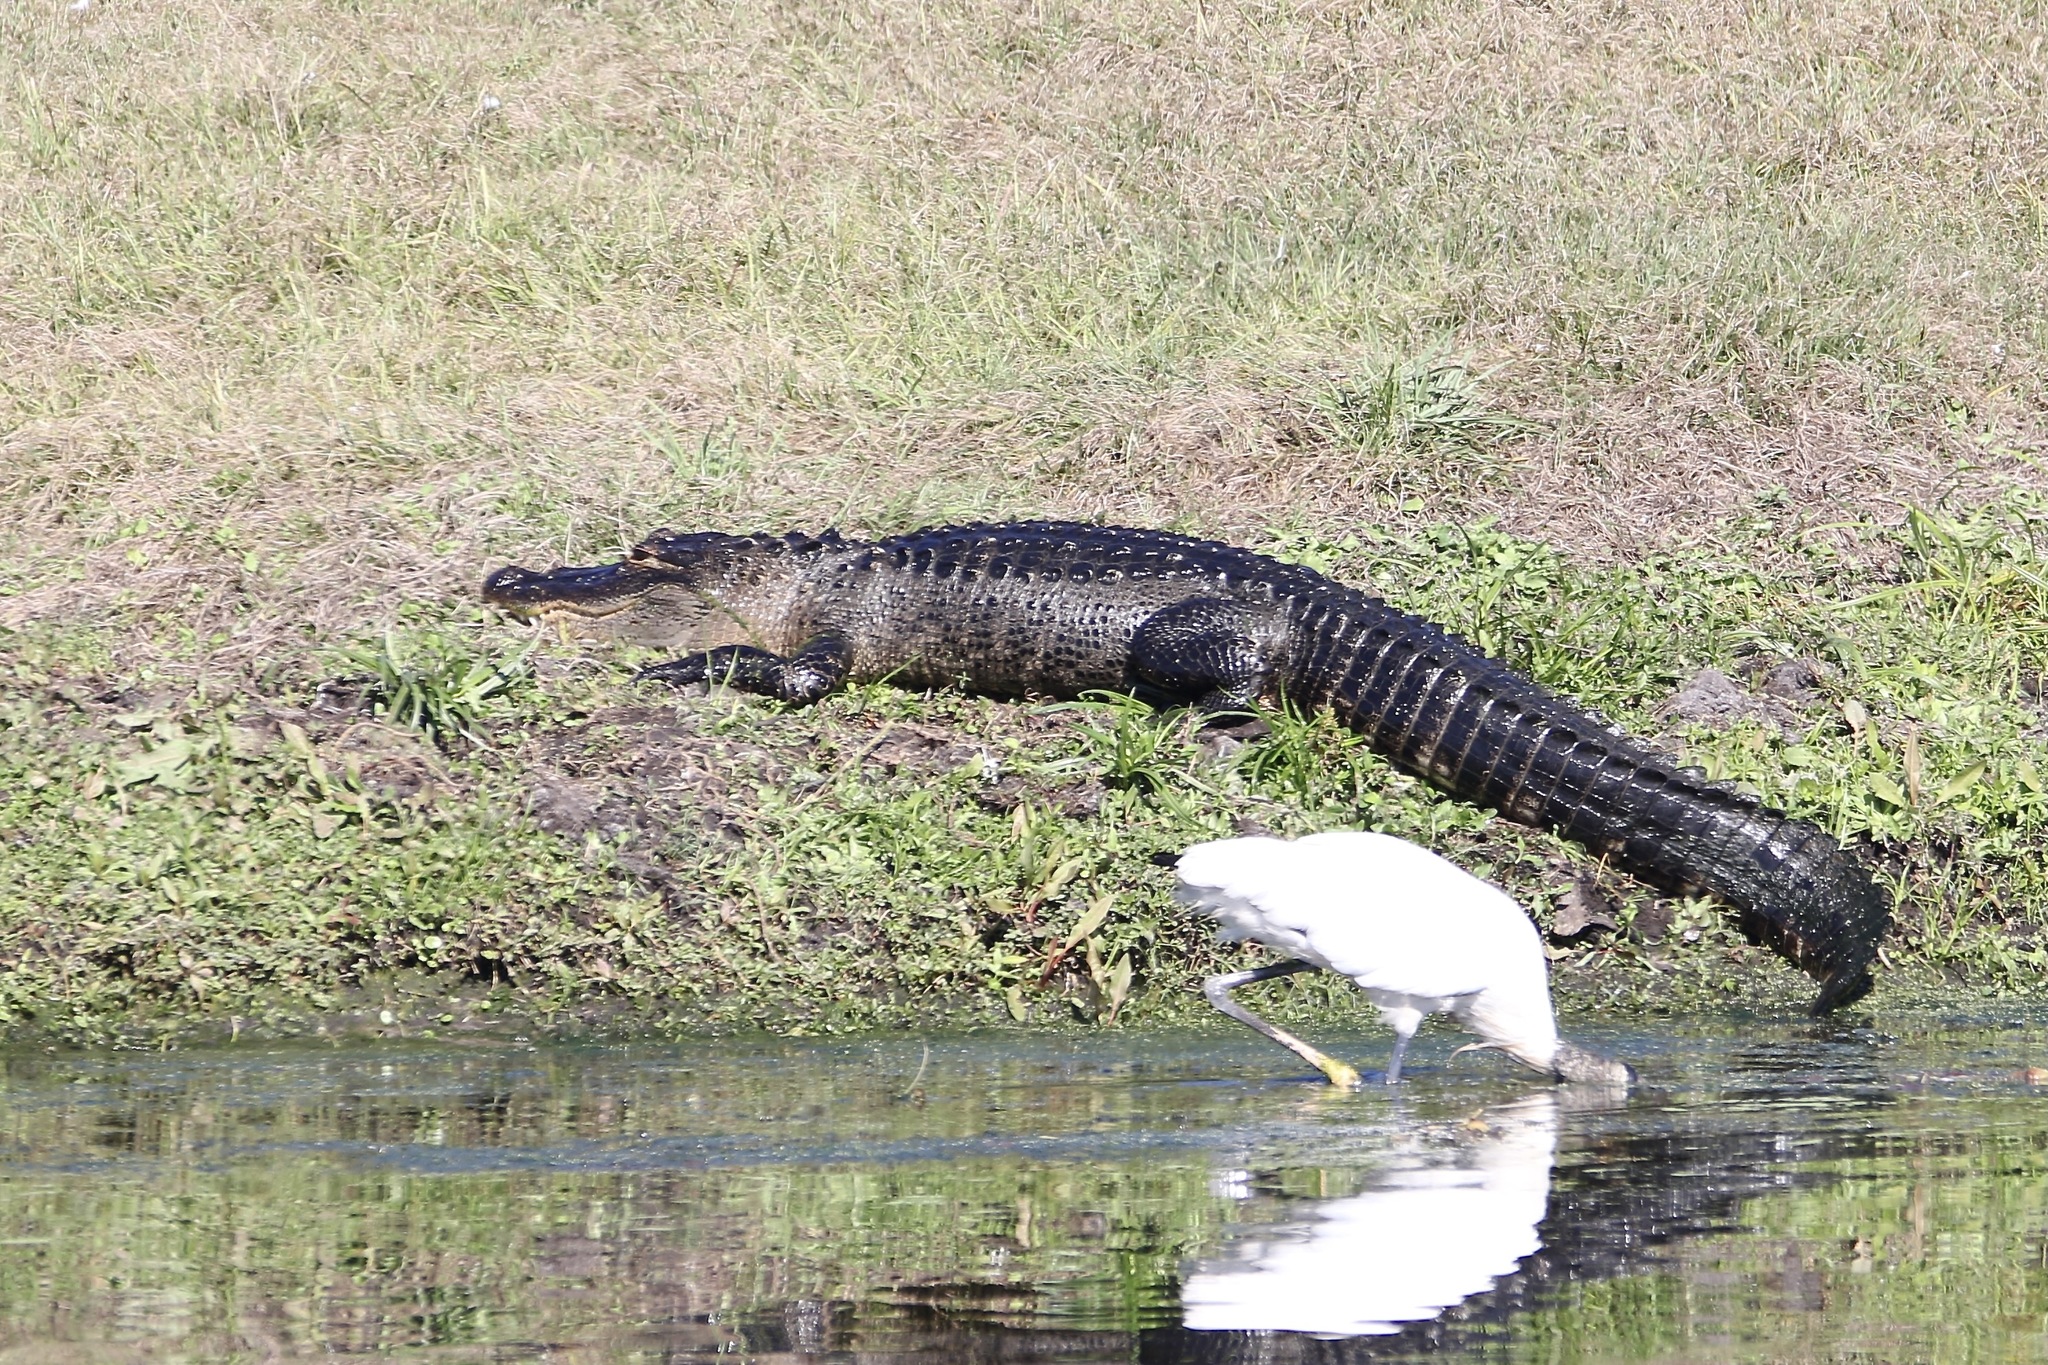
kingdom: Animalia
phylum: Chordata
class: Crocodylia
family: Alligatoridae
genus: Alligator
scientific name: Alligator mississippiensis
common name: American alligator
